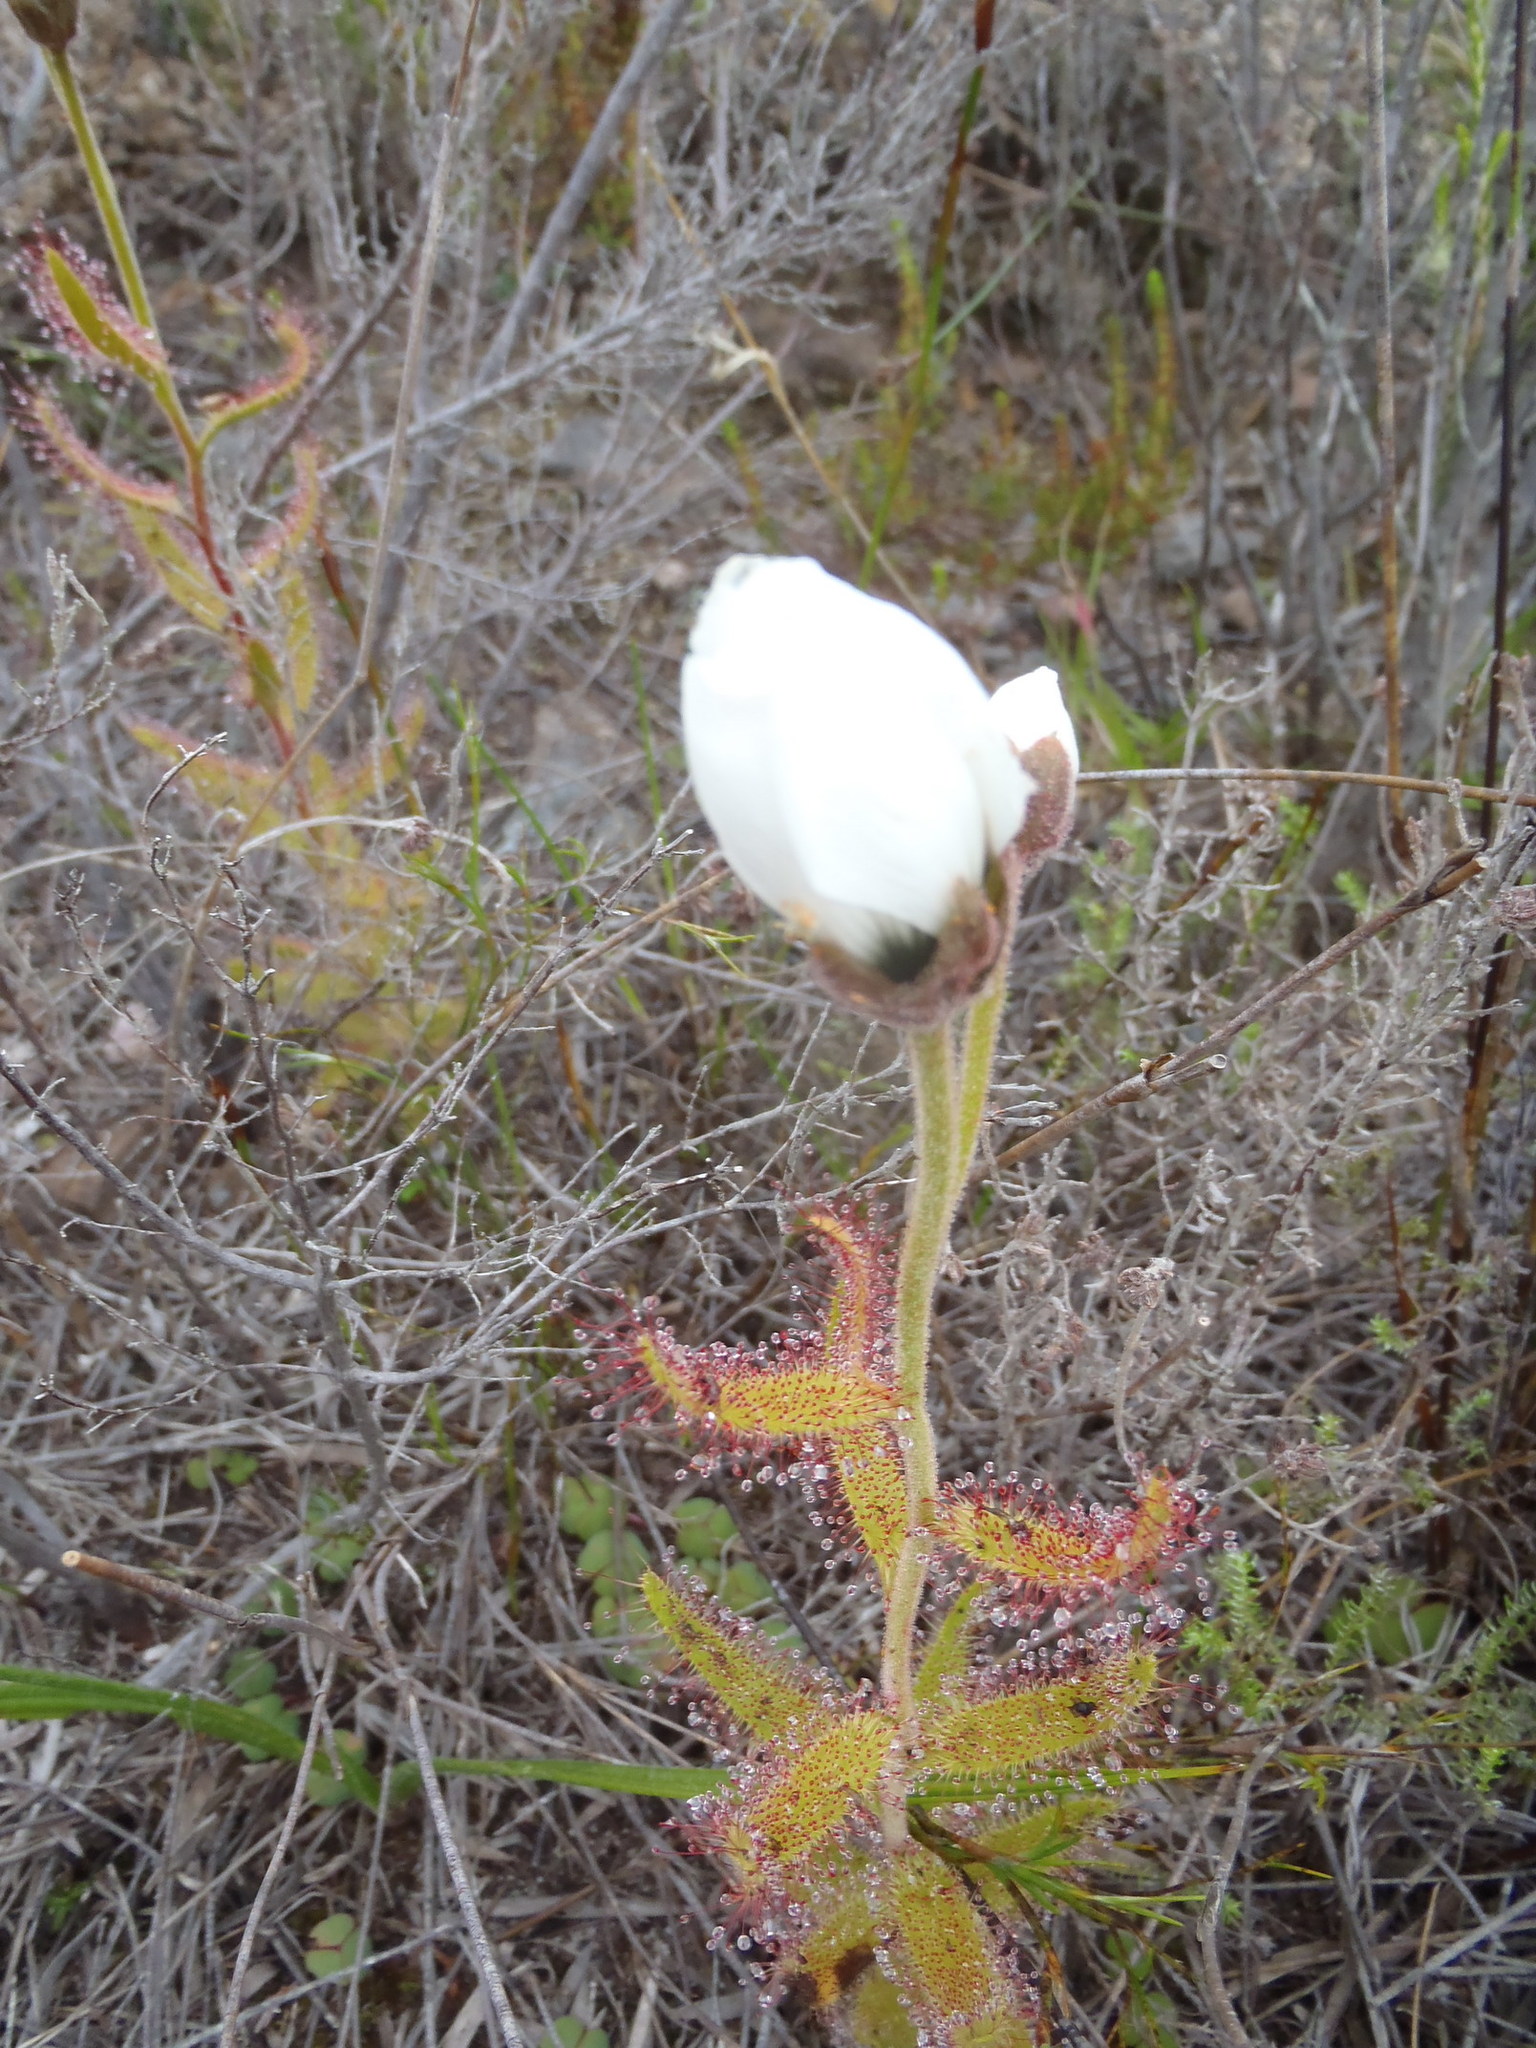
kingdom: Plantae
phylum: Tracheophyta
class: Magnoliopsida
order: Caryophyllales
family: Droseraceae
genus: Drosera
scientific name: Drosera cistiflora
